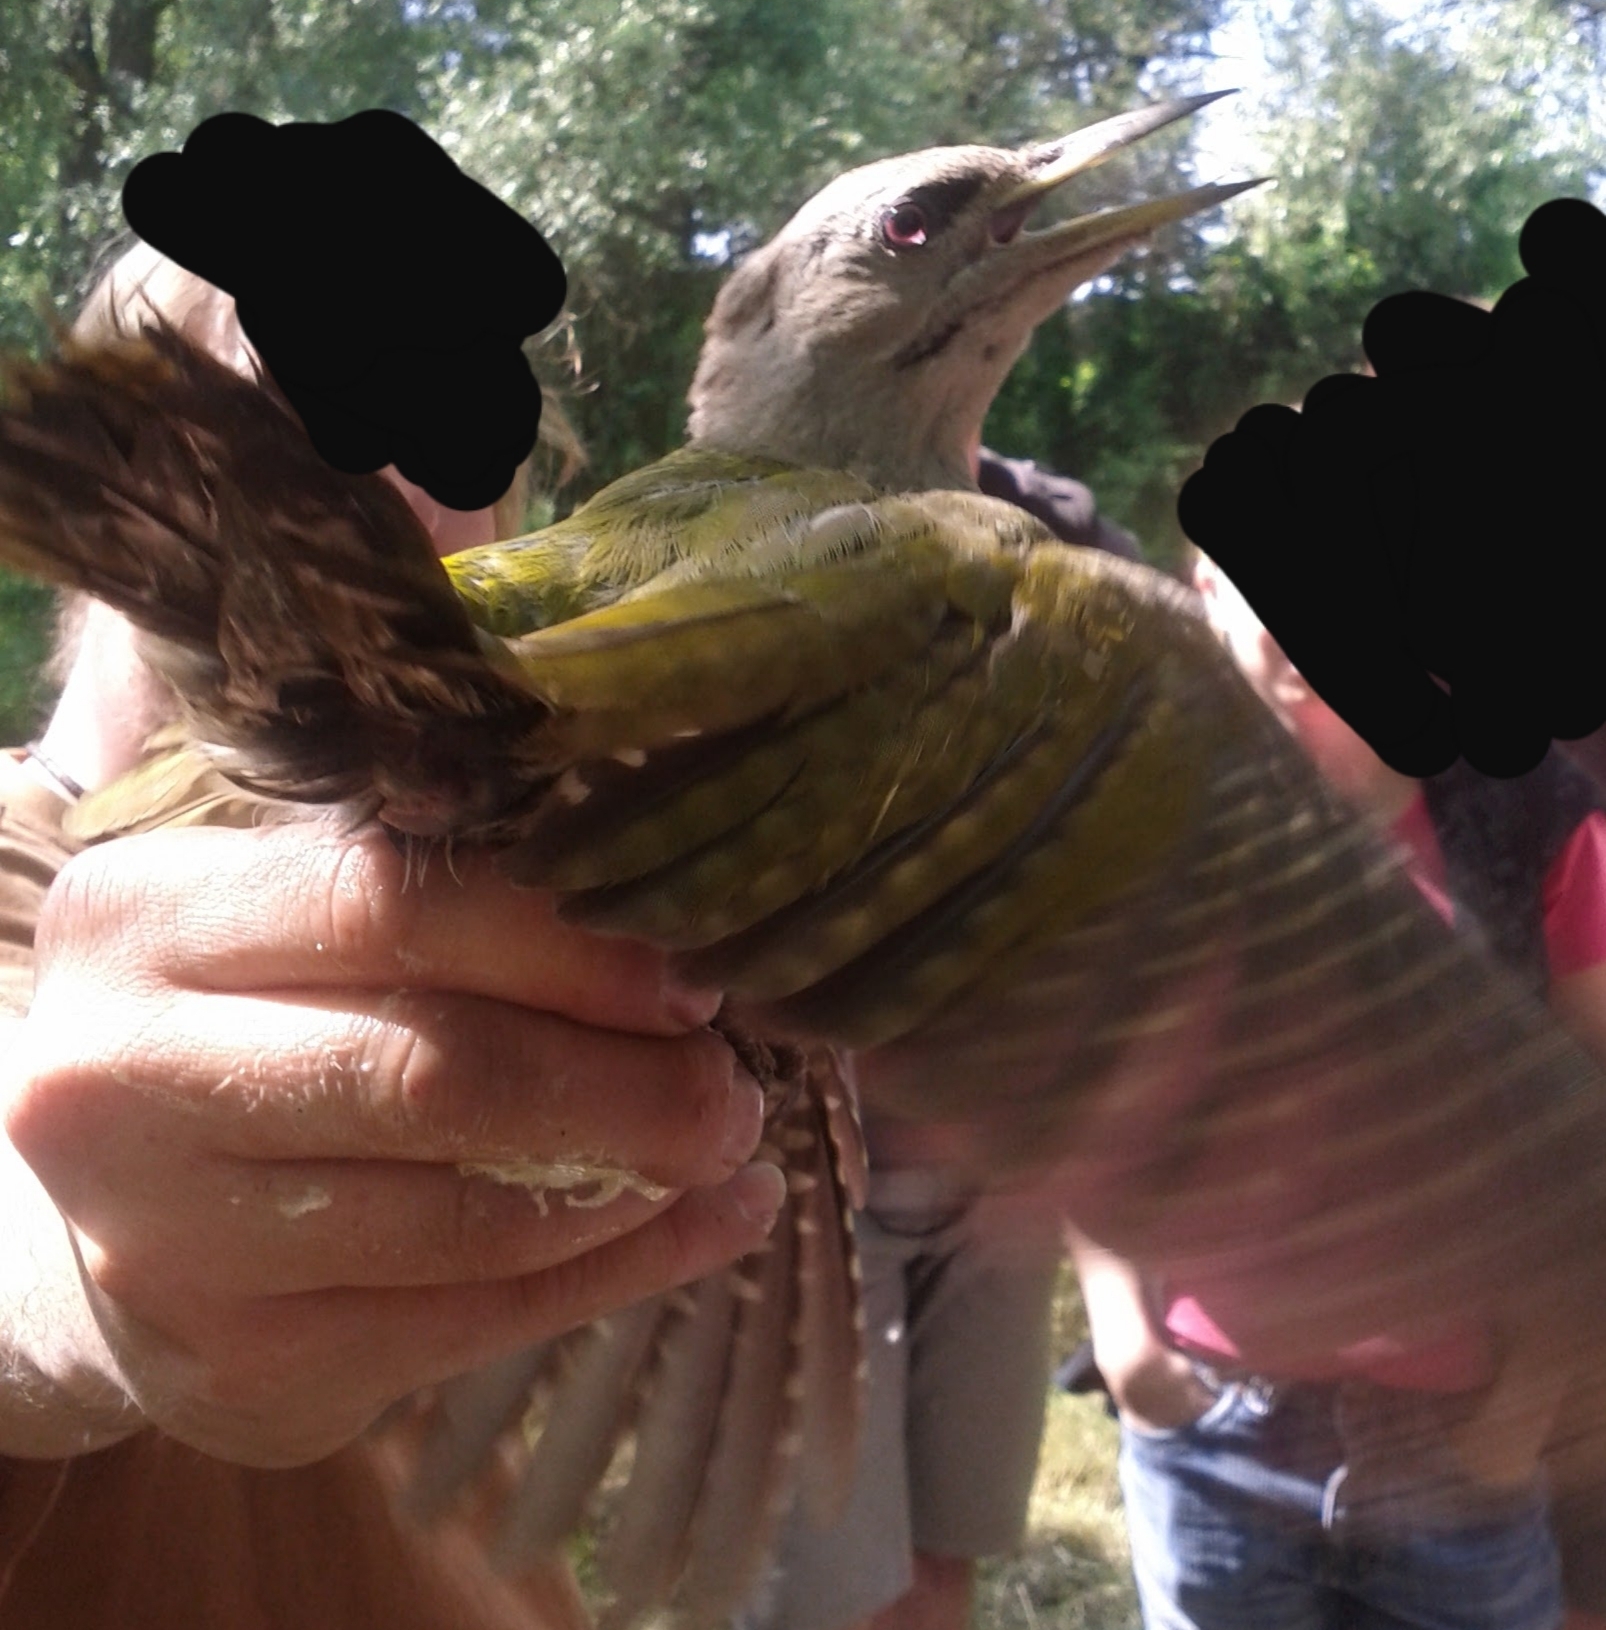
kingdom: Animalia
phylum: Chordata
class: Aves
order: Piciformes
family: Picidae
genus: Picus
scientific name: Picus canus
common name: Grey-headed woodpecker
